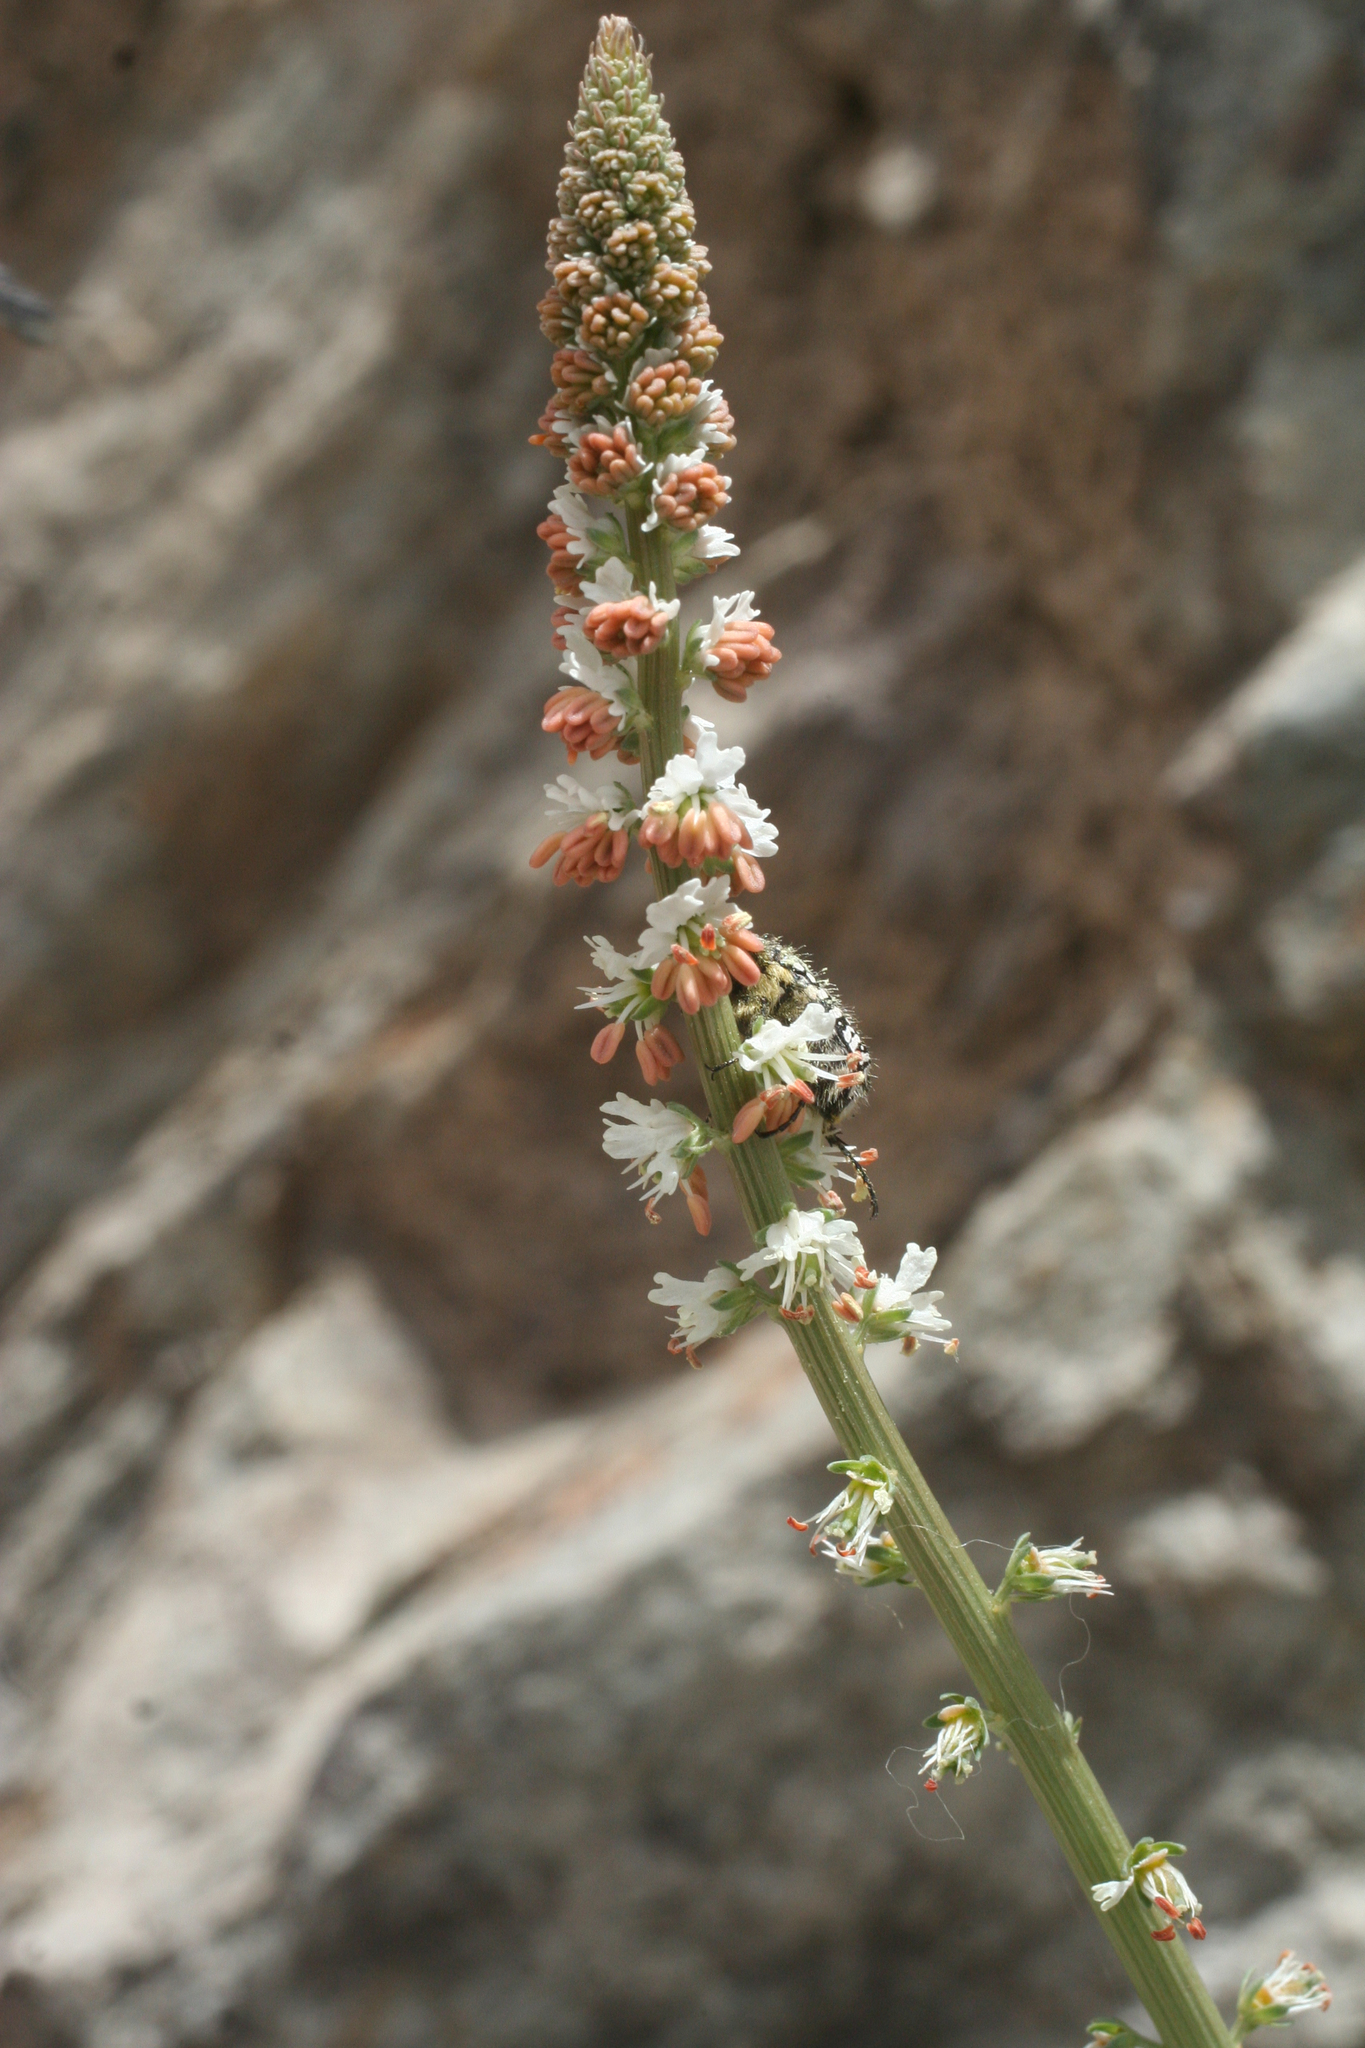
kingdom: Plantae
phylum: Tracheophyta
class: Magnoliopsida
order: Brassicales
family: Resedaceae
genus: Reseda
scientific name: Reseda attenuata
